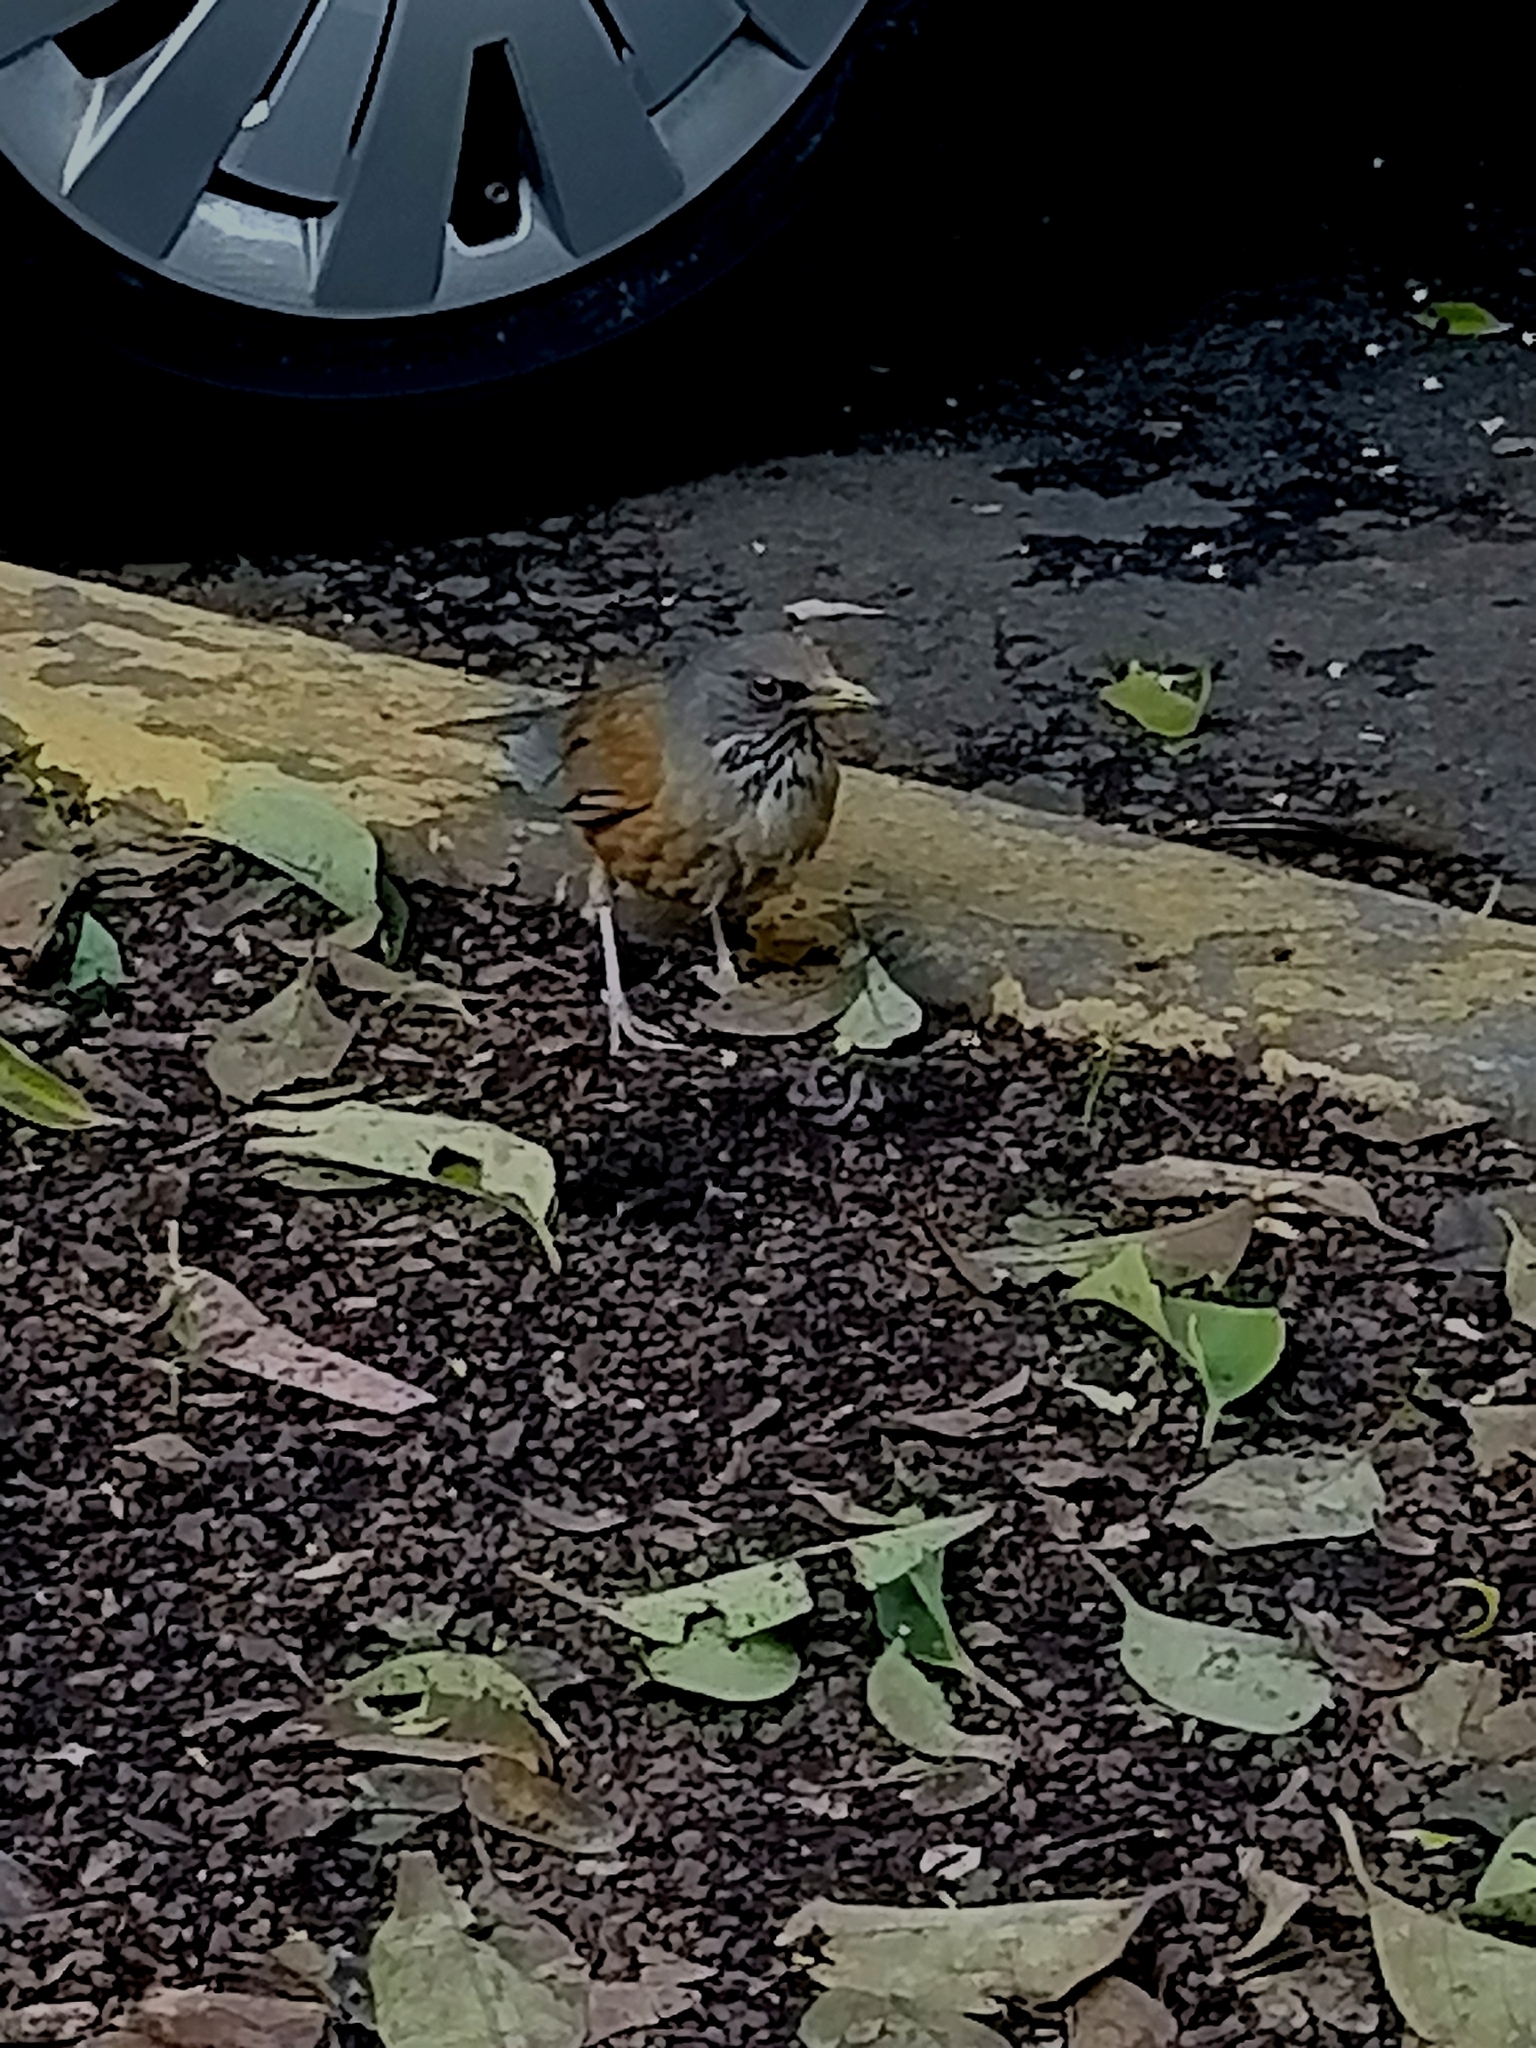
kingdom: Animalia
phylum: Chordata
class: Aves
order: Passeriformes
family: Turdidae
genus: Turdus
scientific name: Turdus rufopalliatus
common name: Rufous-backed robin
